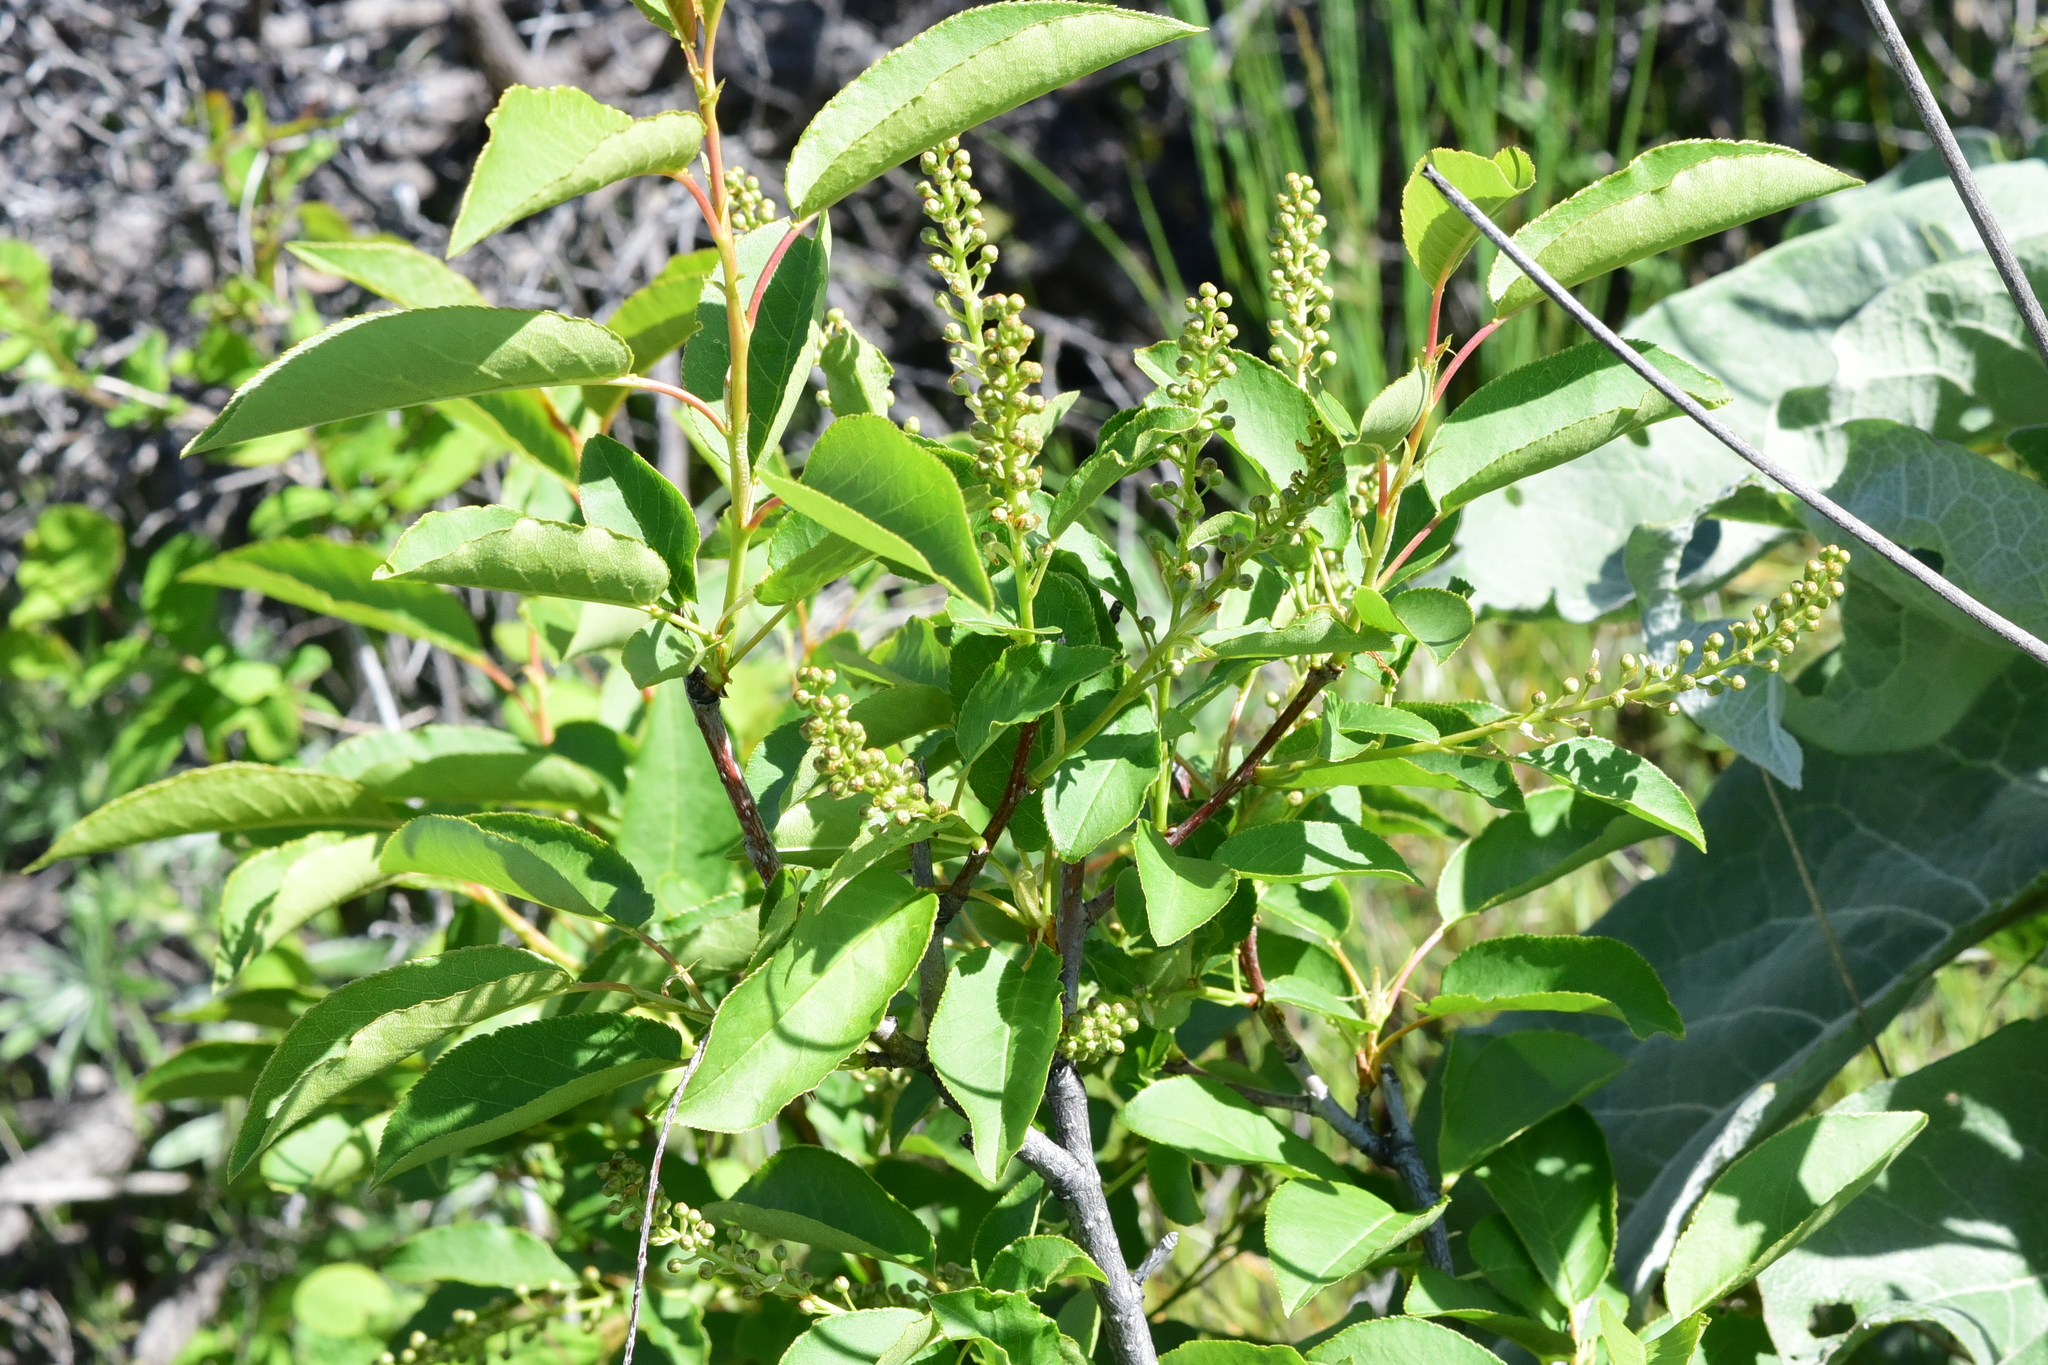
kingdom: Plantae
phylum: Tracheophyta
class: Magnoliopsida
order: Rosales
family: Rosaceae
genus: Prunus
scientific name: Prunus virginiana
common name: Chokecherry
